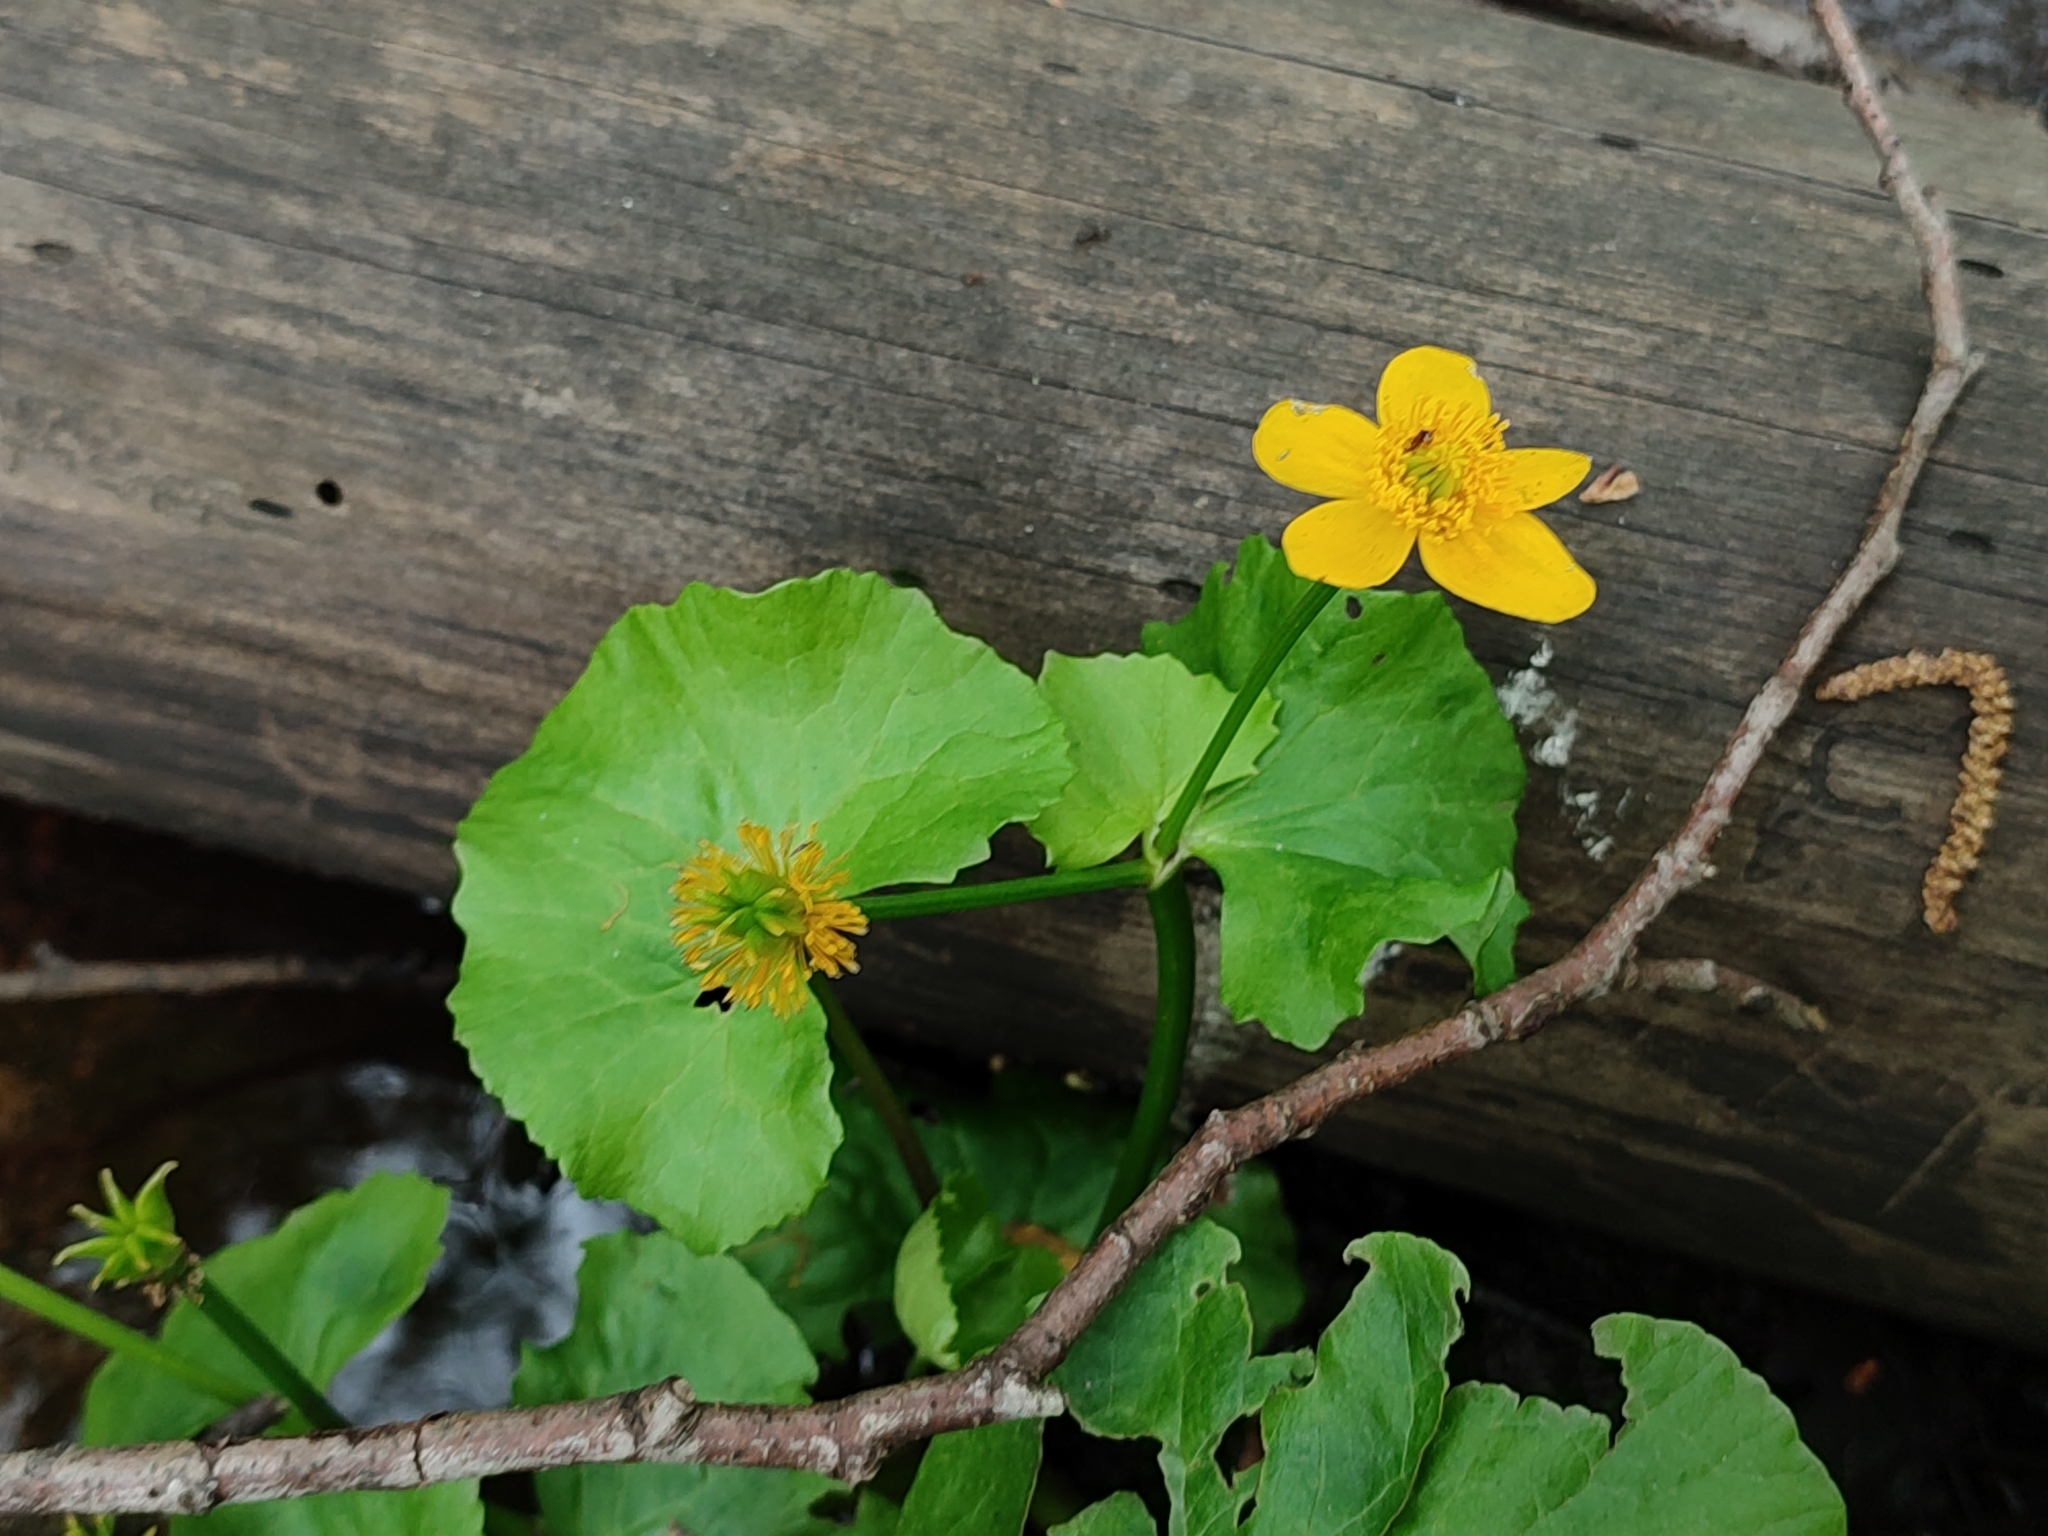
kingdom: Plantae
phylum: Tracheophyta
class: Magnoliopsida
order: Ranunculales
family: Ranunculaceae
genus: Caltha
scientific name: Caltha palustris
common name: Marsh marigold
